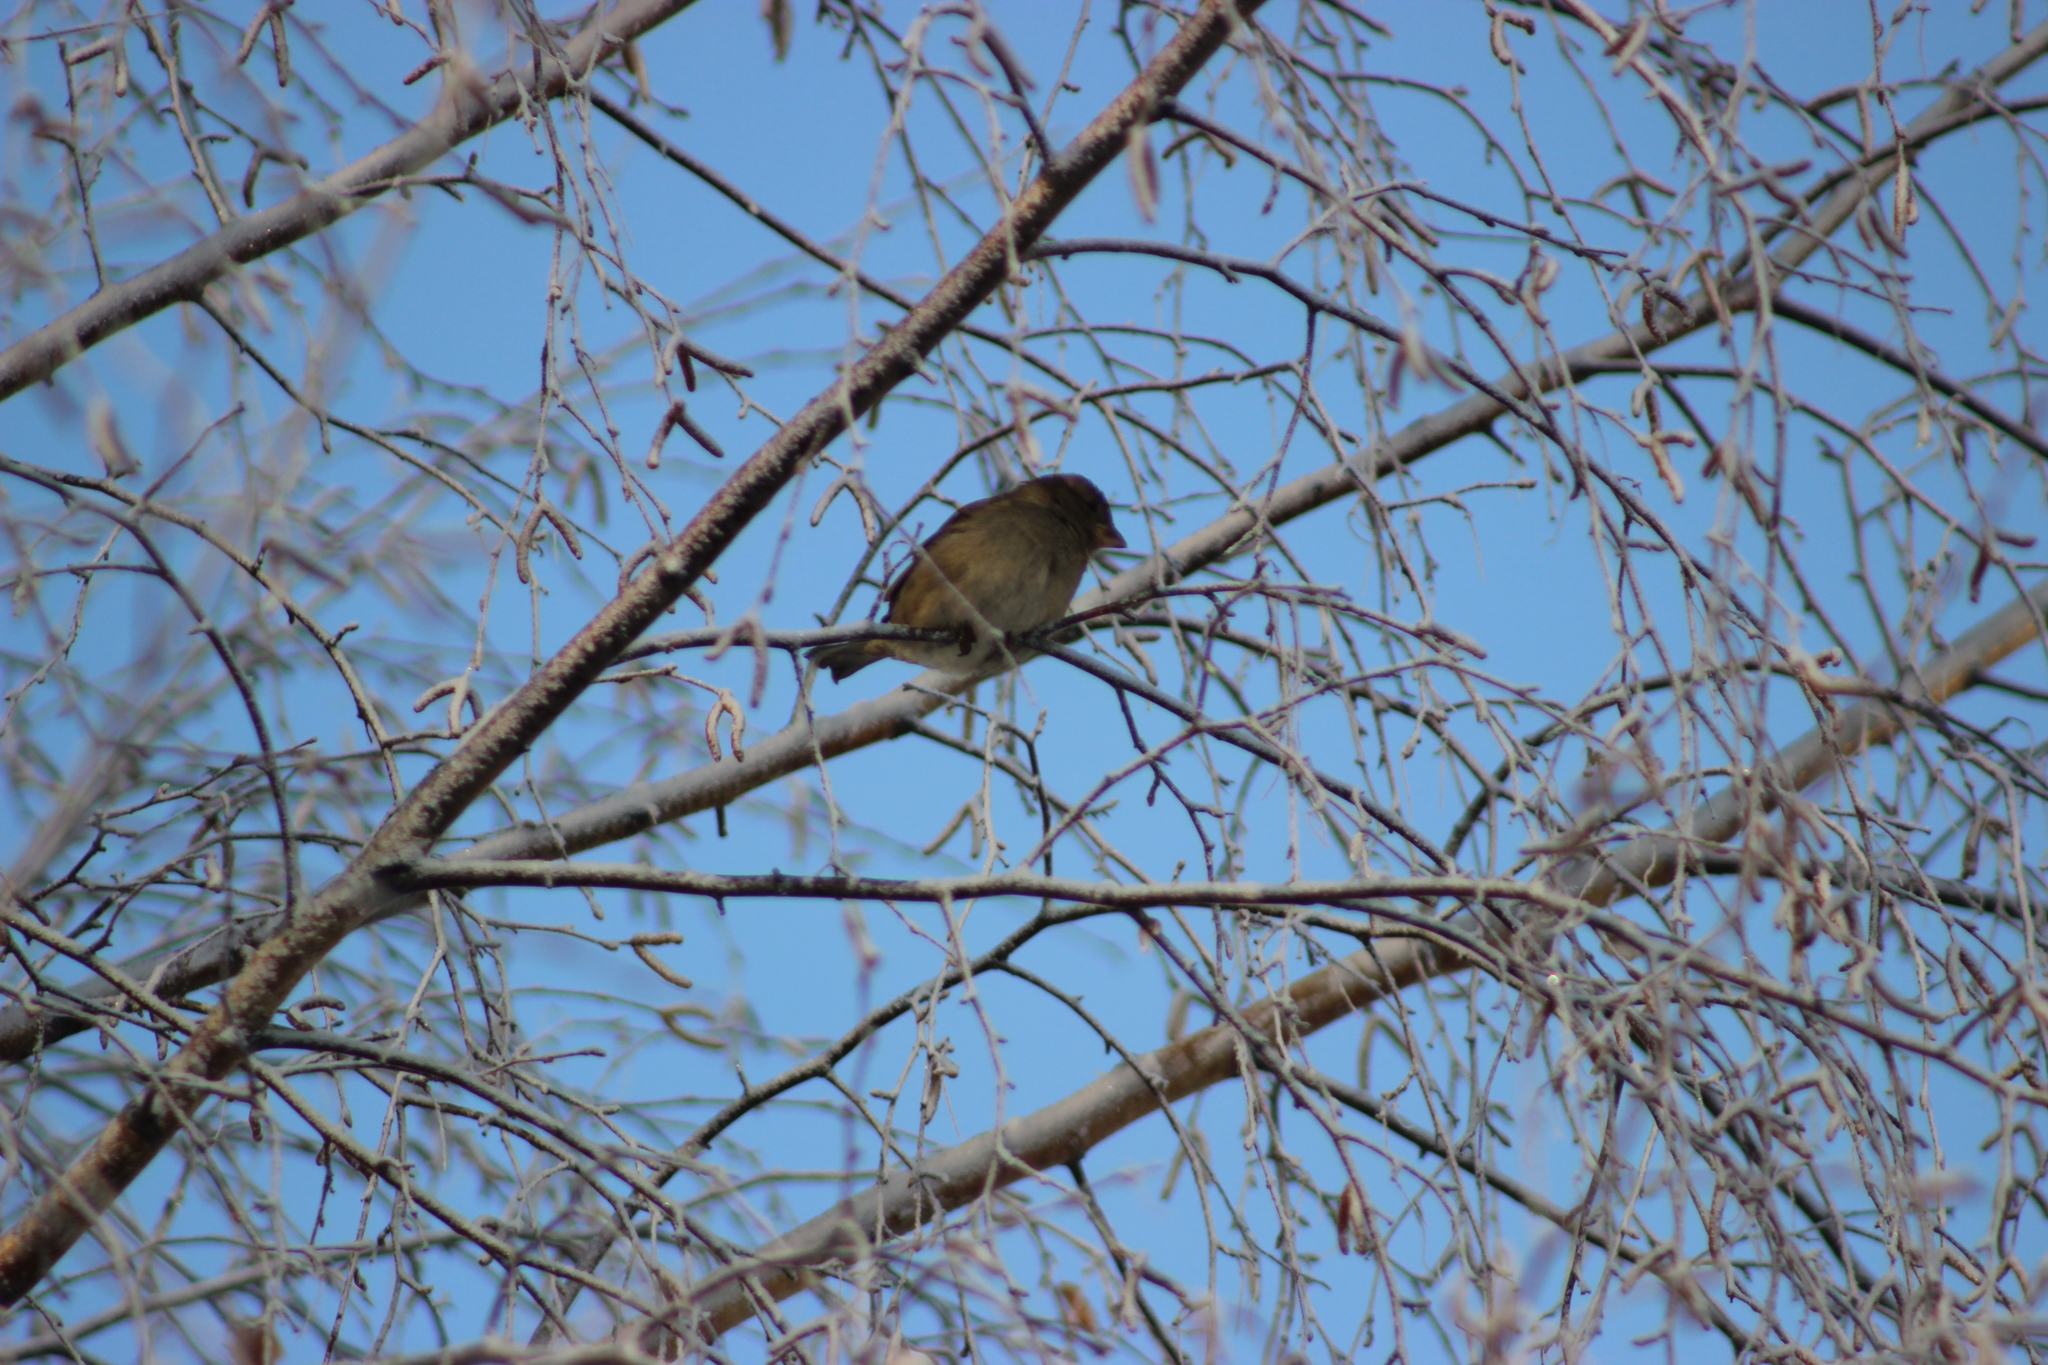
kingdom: Animalia
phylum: Chordata
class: Aves
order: Passeriformes
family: Passeridae
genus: Passer
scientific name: Passer domesticus
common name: House sparrow
